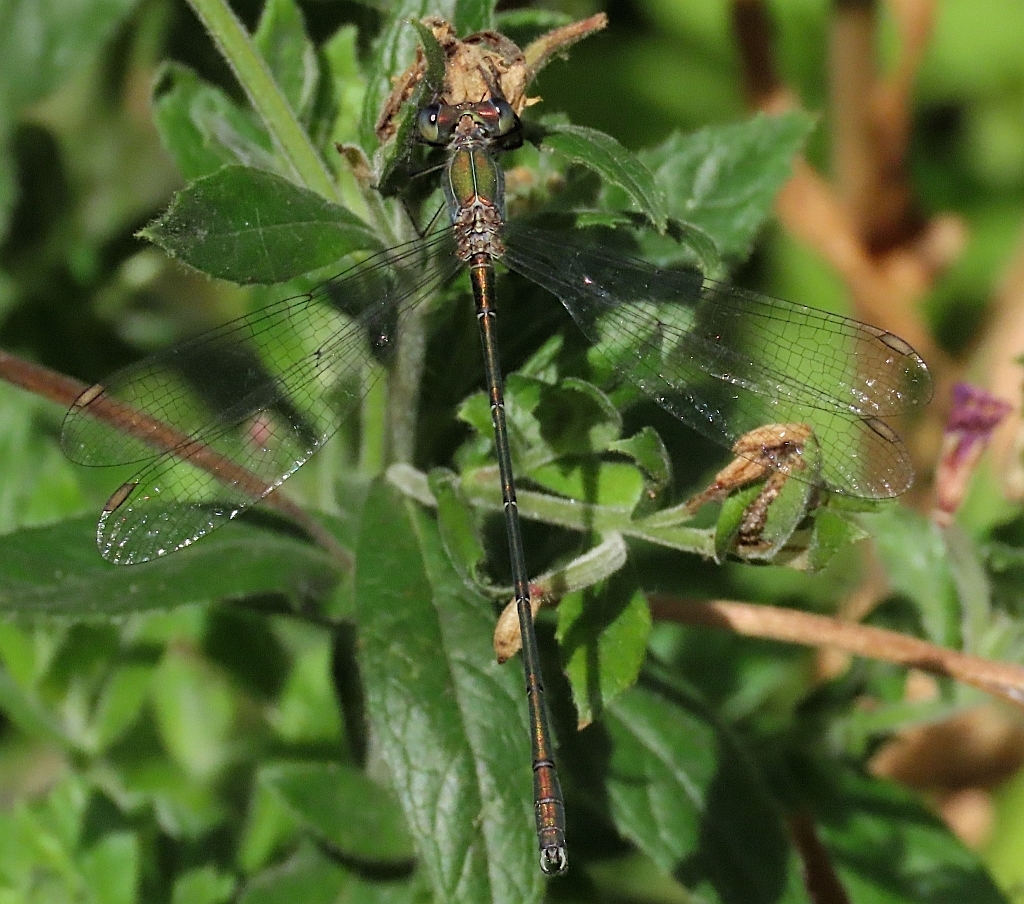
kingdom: Animalia
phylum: Arthropoda
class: Insecta
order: Odonata
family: Lestidae
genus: Chalcolestes
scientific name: Chalcolestes viridis
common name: Green emerald damselfly
